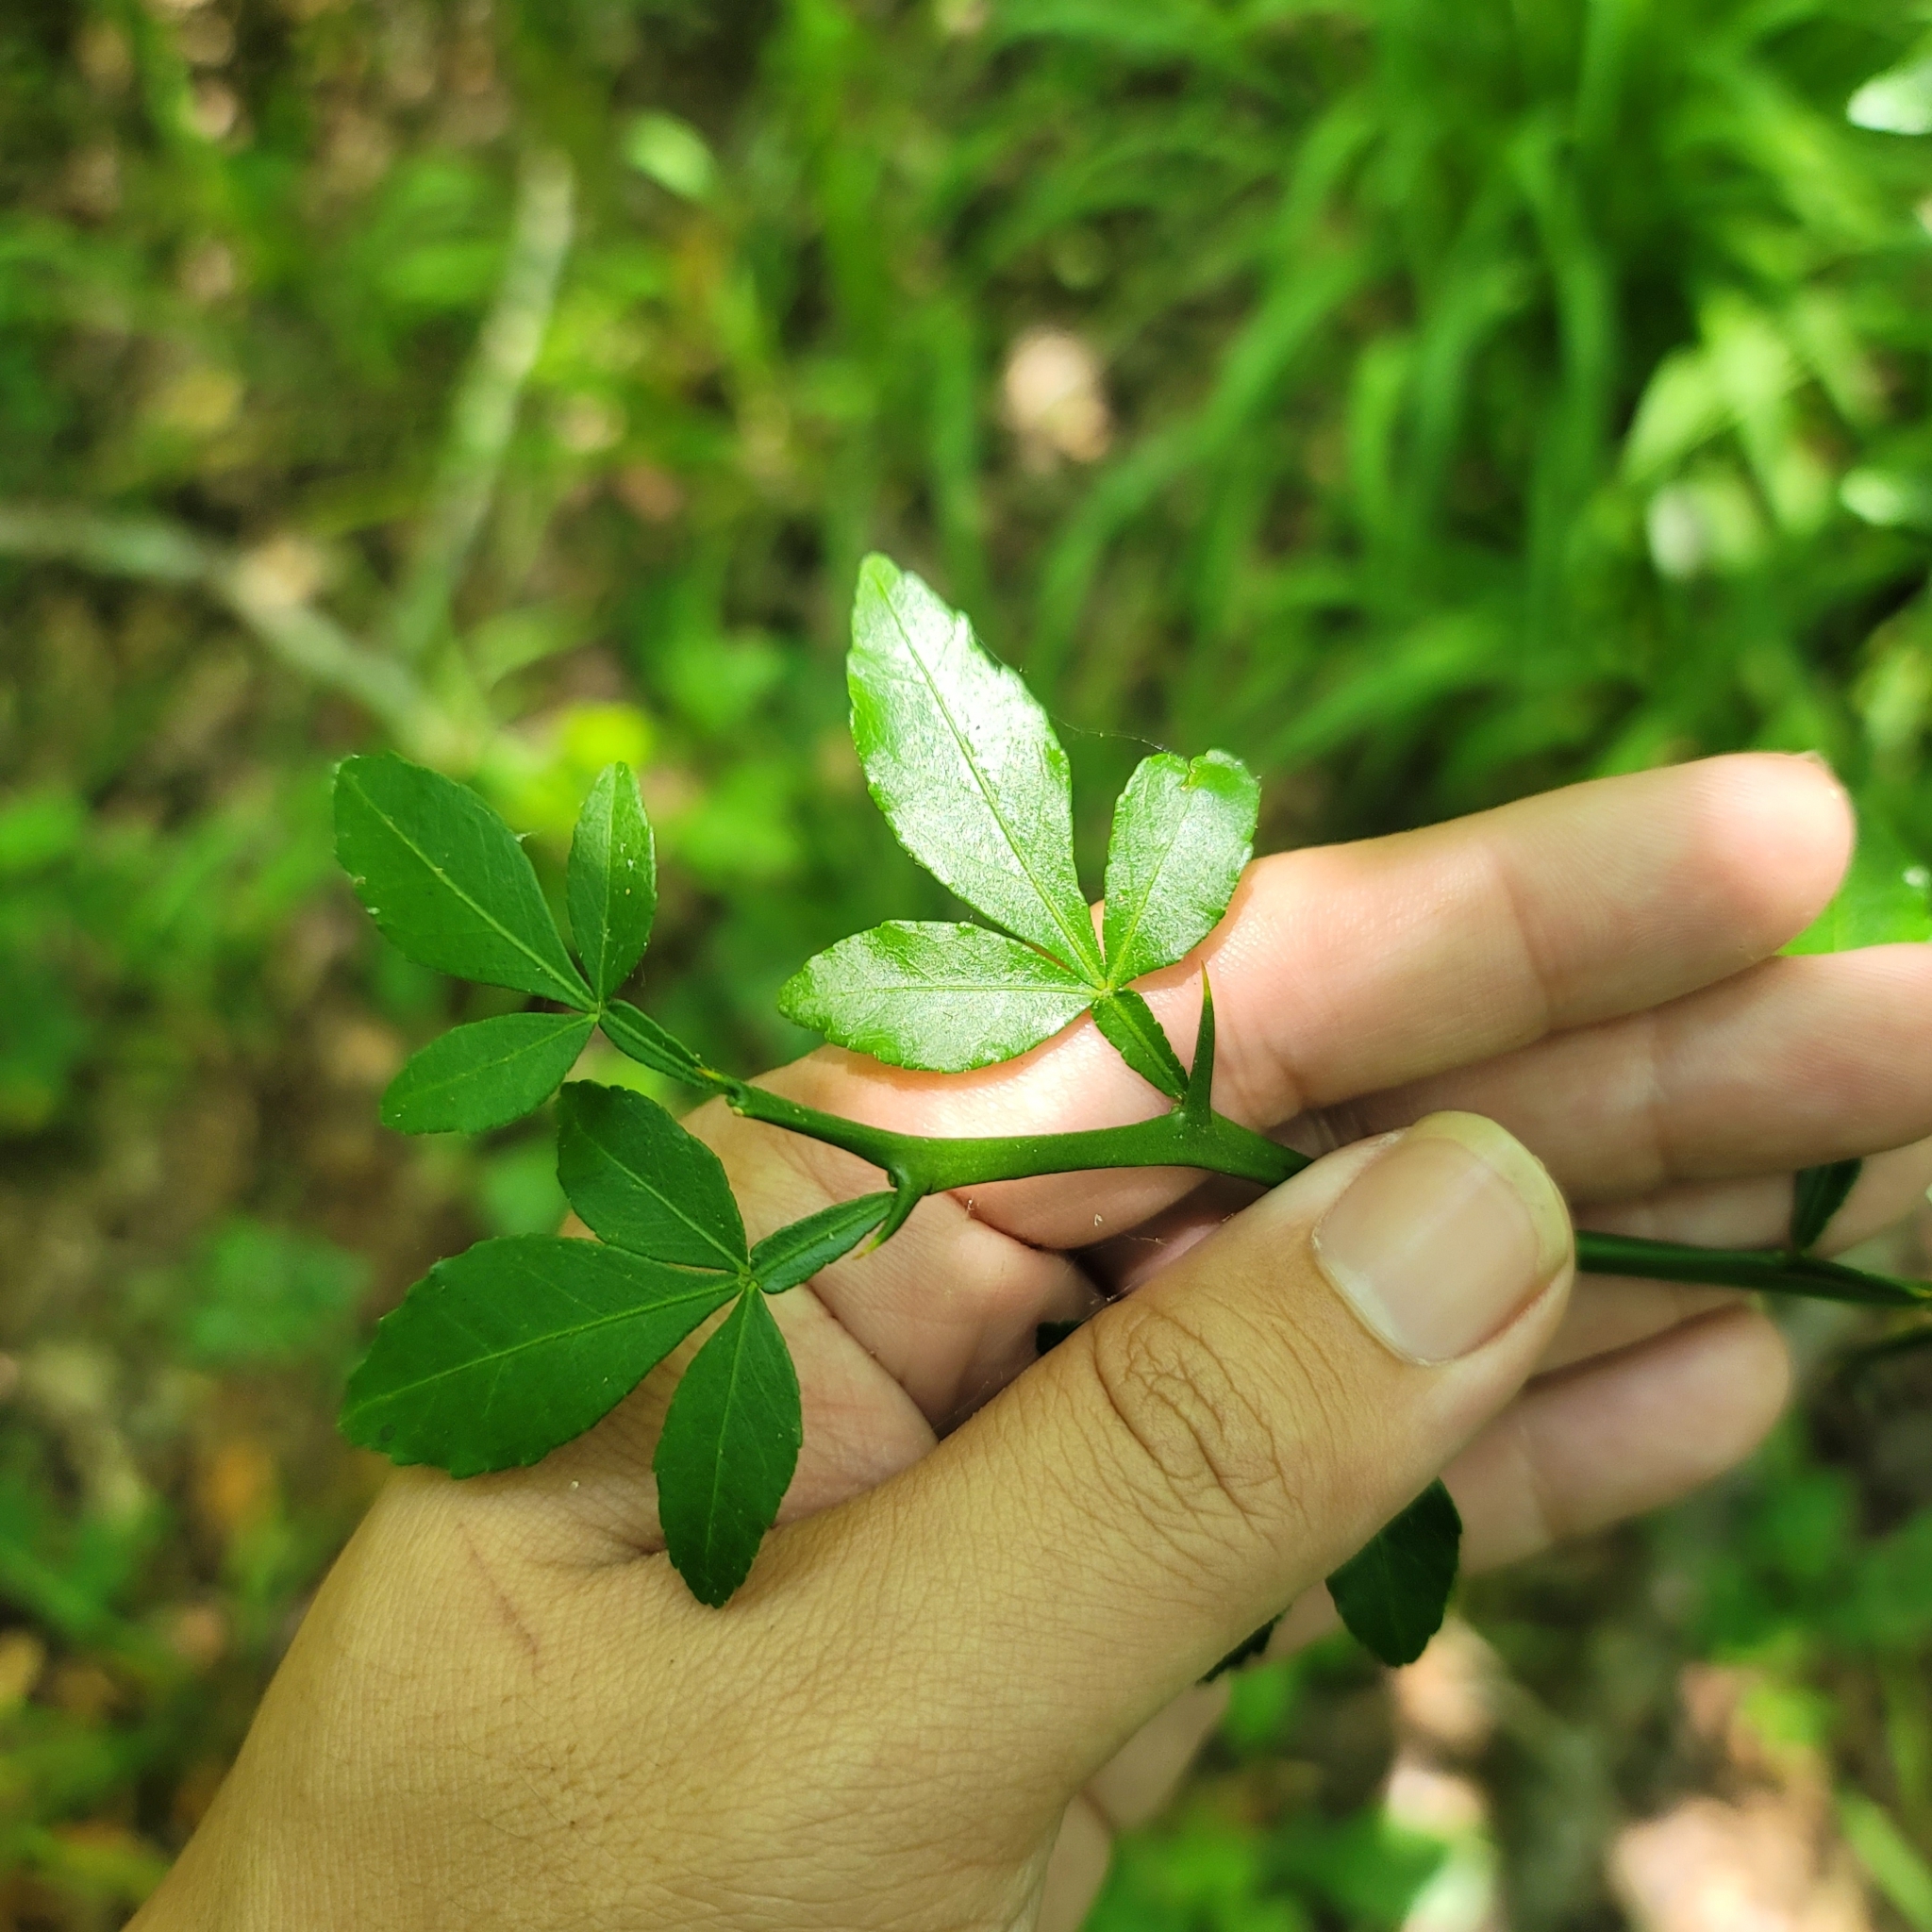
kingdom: Plantae
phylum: Tracheophyta
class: Magnoliopsida
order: Sapindales
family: Rutaceae
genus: Citrus
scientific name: Citrus trifoliata
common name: Japanese bitter-orange
